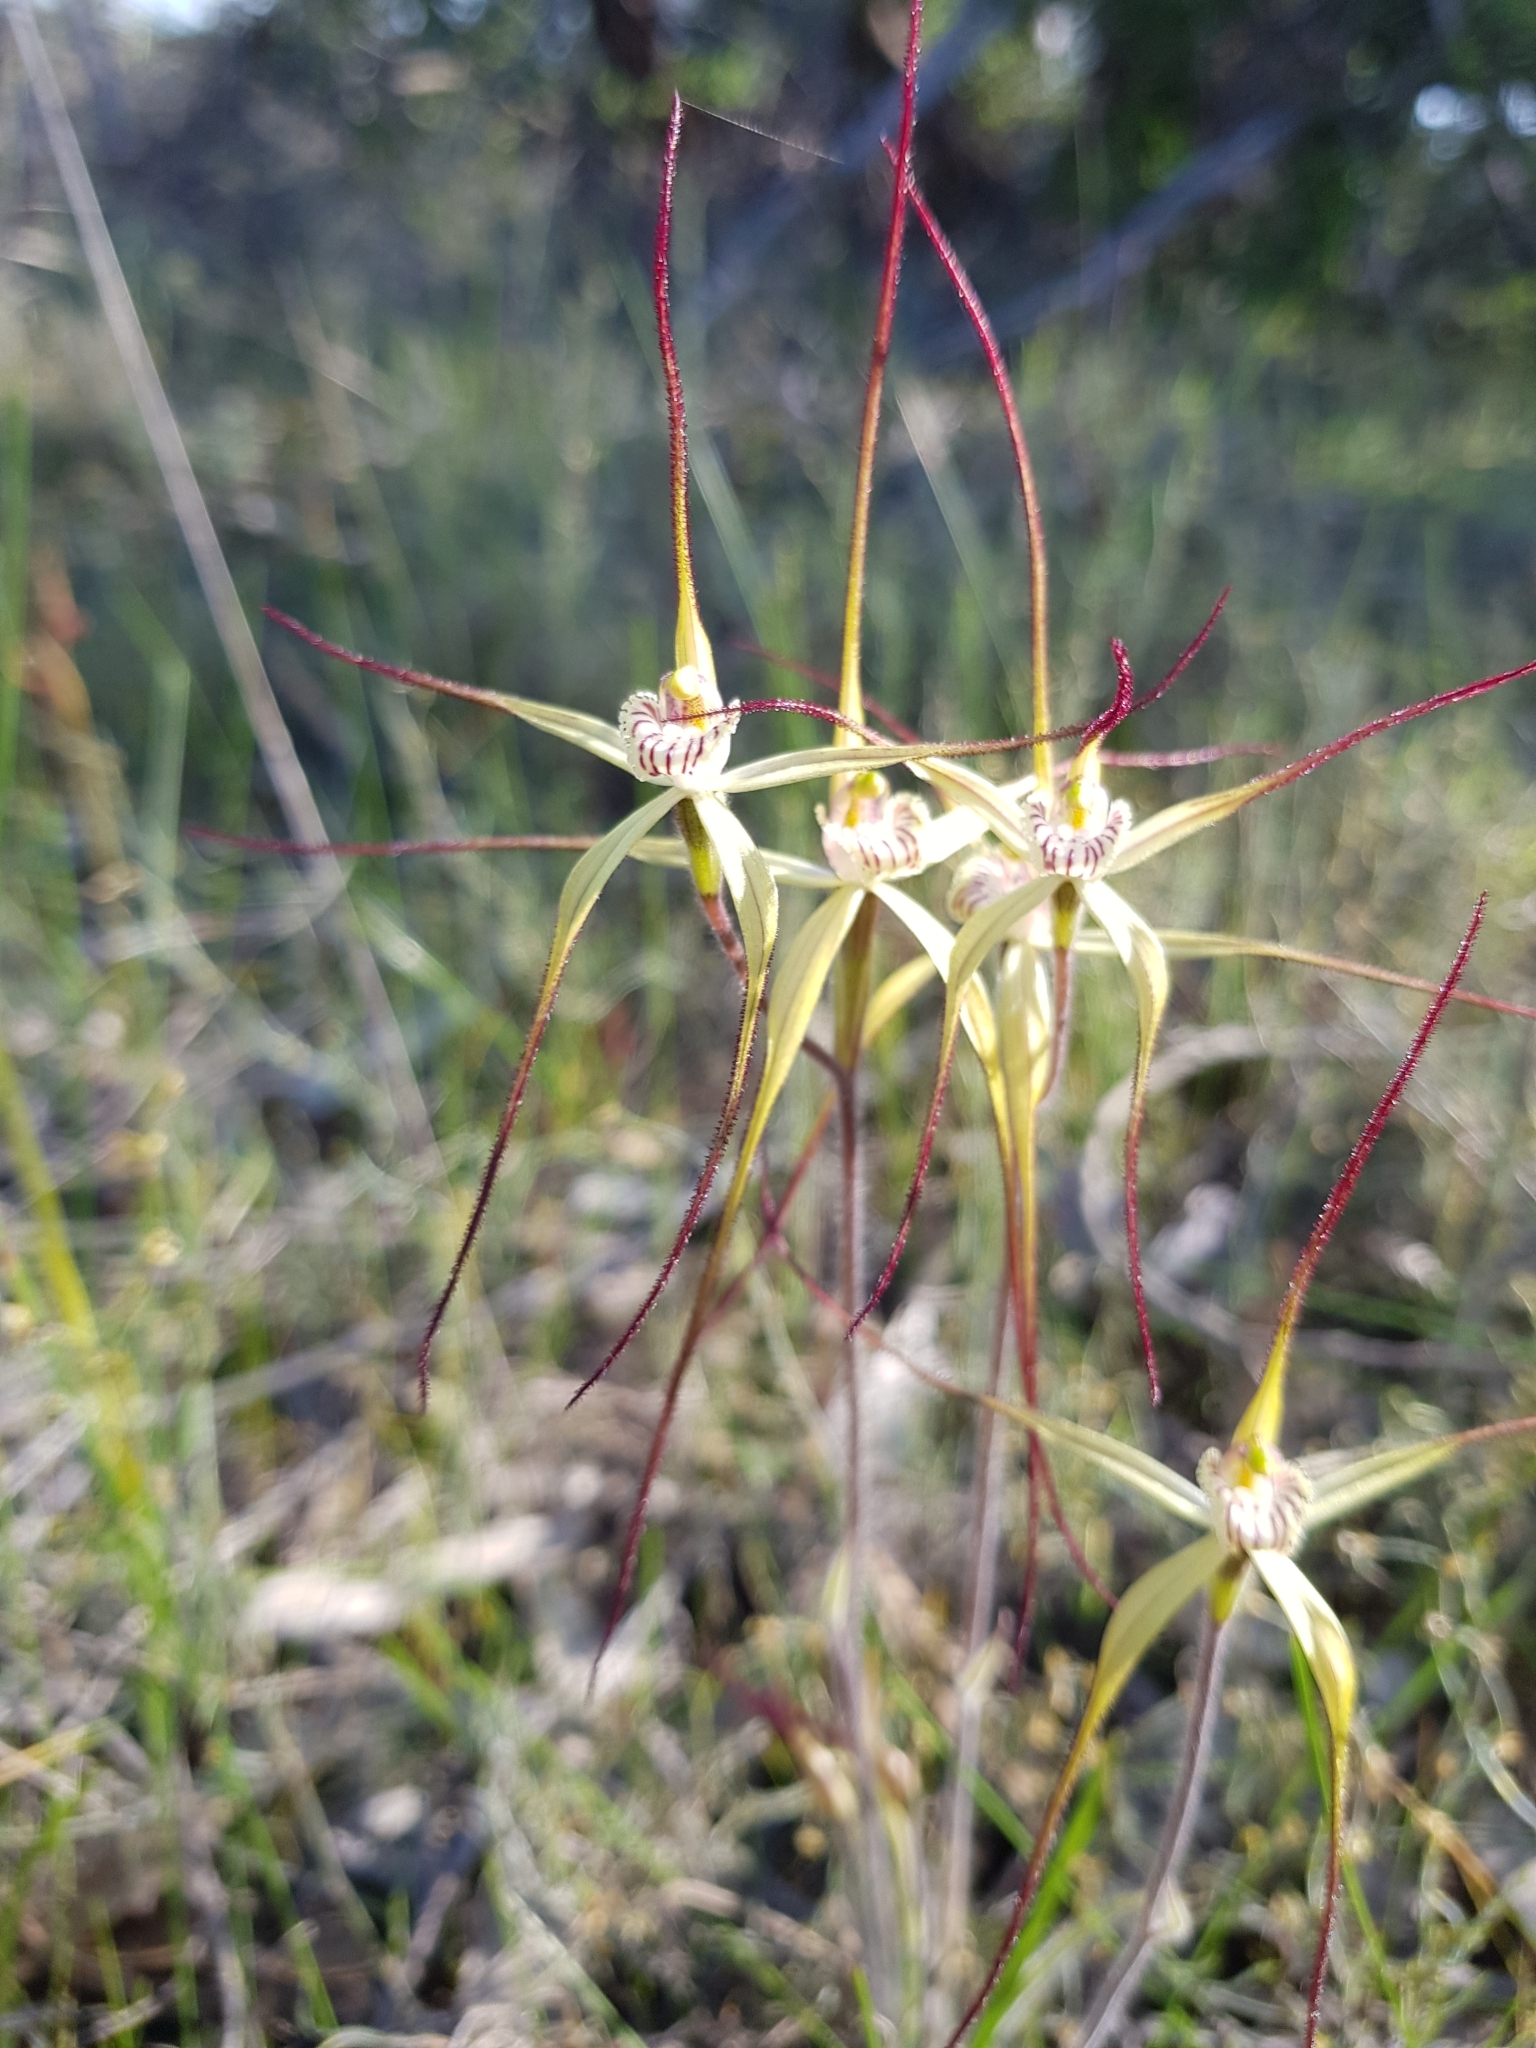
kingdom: Plantae
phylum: Tracheophyta
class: Liliopsida
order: Asparagales
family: Orchidaceae
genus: Caladenia
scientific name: Caladenia straminichila
